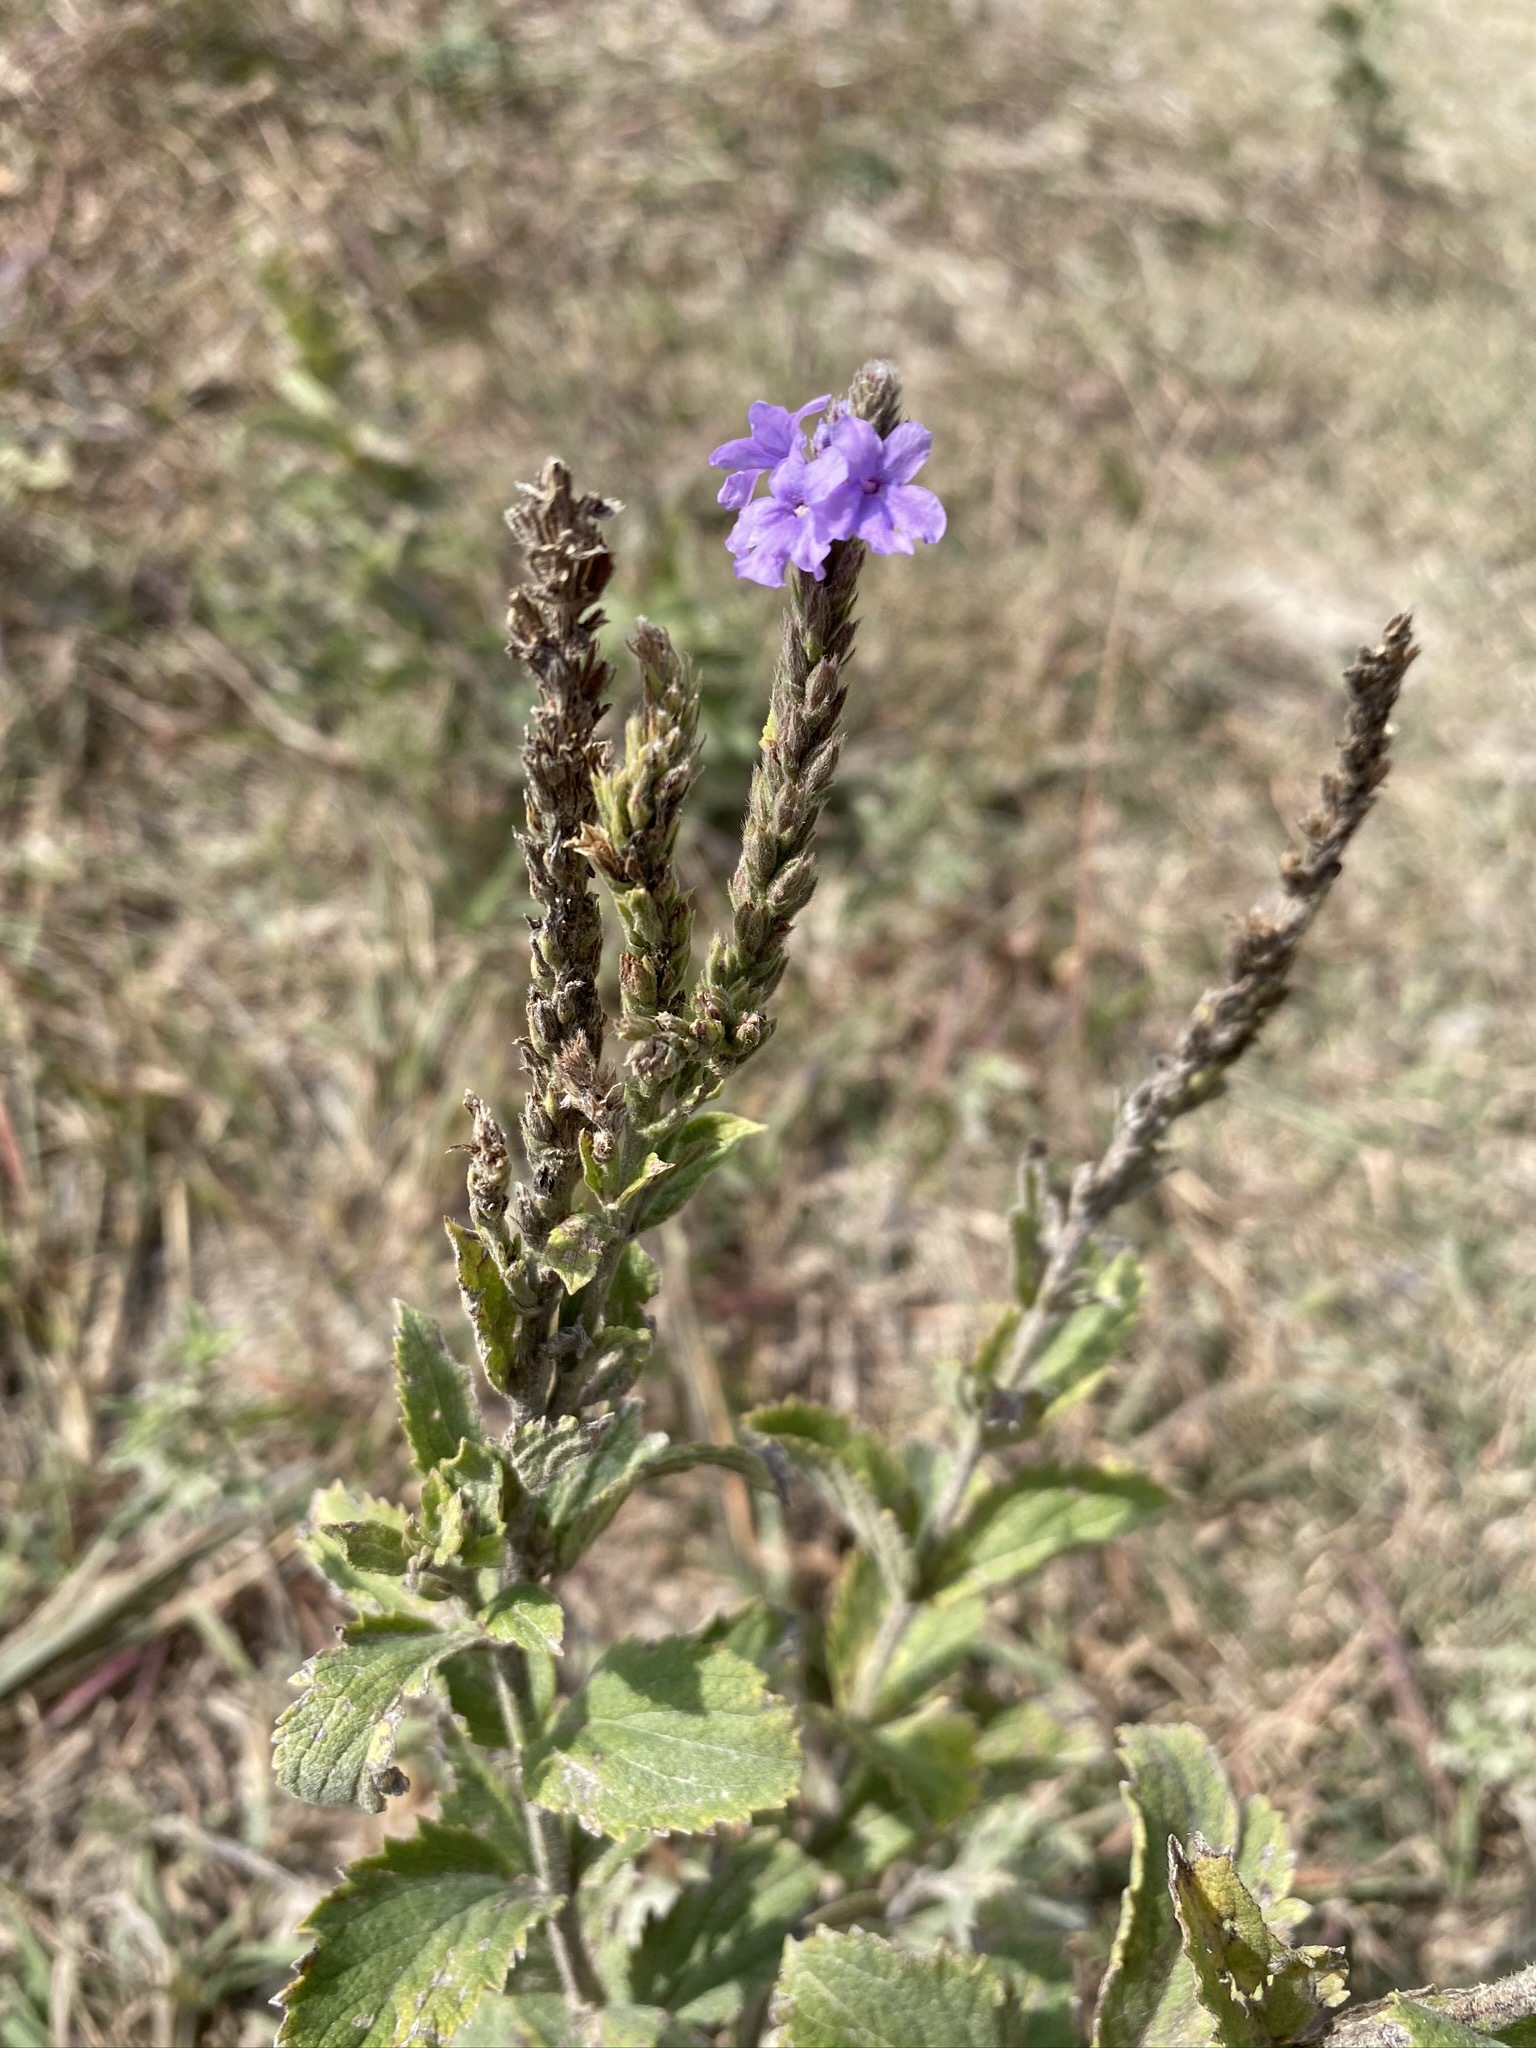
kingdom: Plantae
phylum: Tracheophyta
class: Magnoliopsida
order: Lamiales
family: Verbenaceae
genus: Verbena
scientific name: Verbena stricta
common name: Hoary vervain
